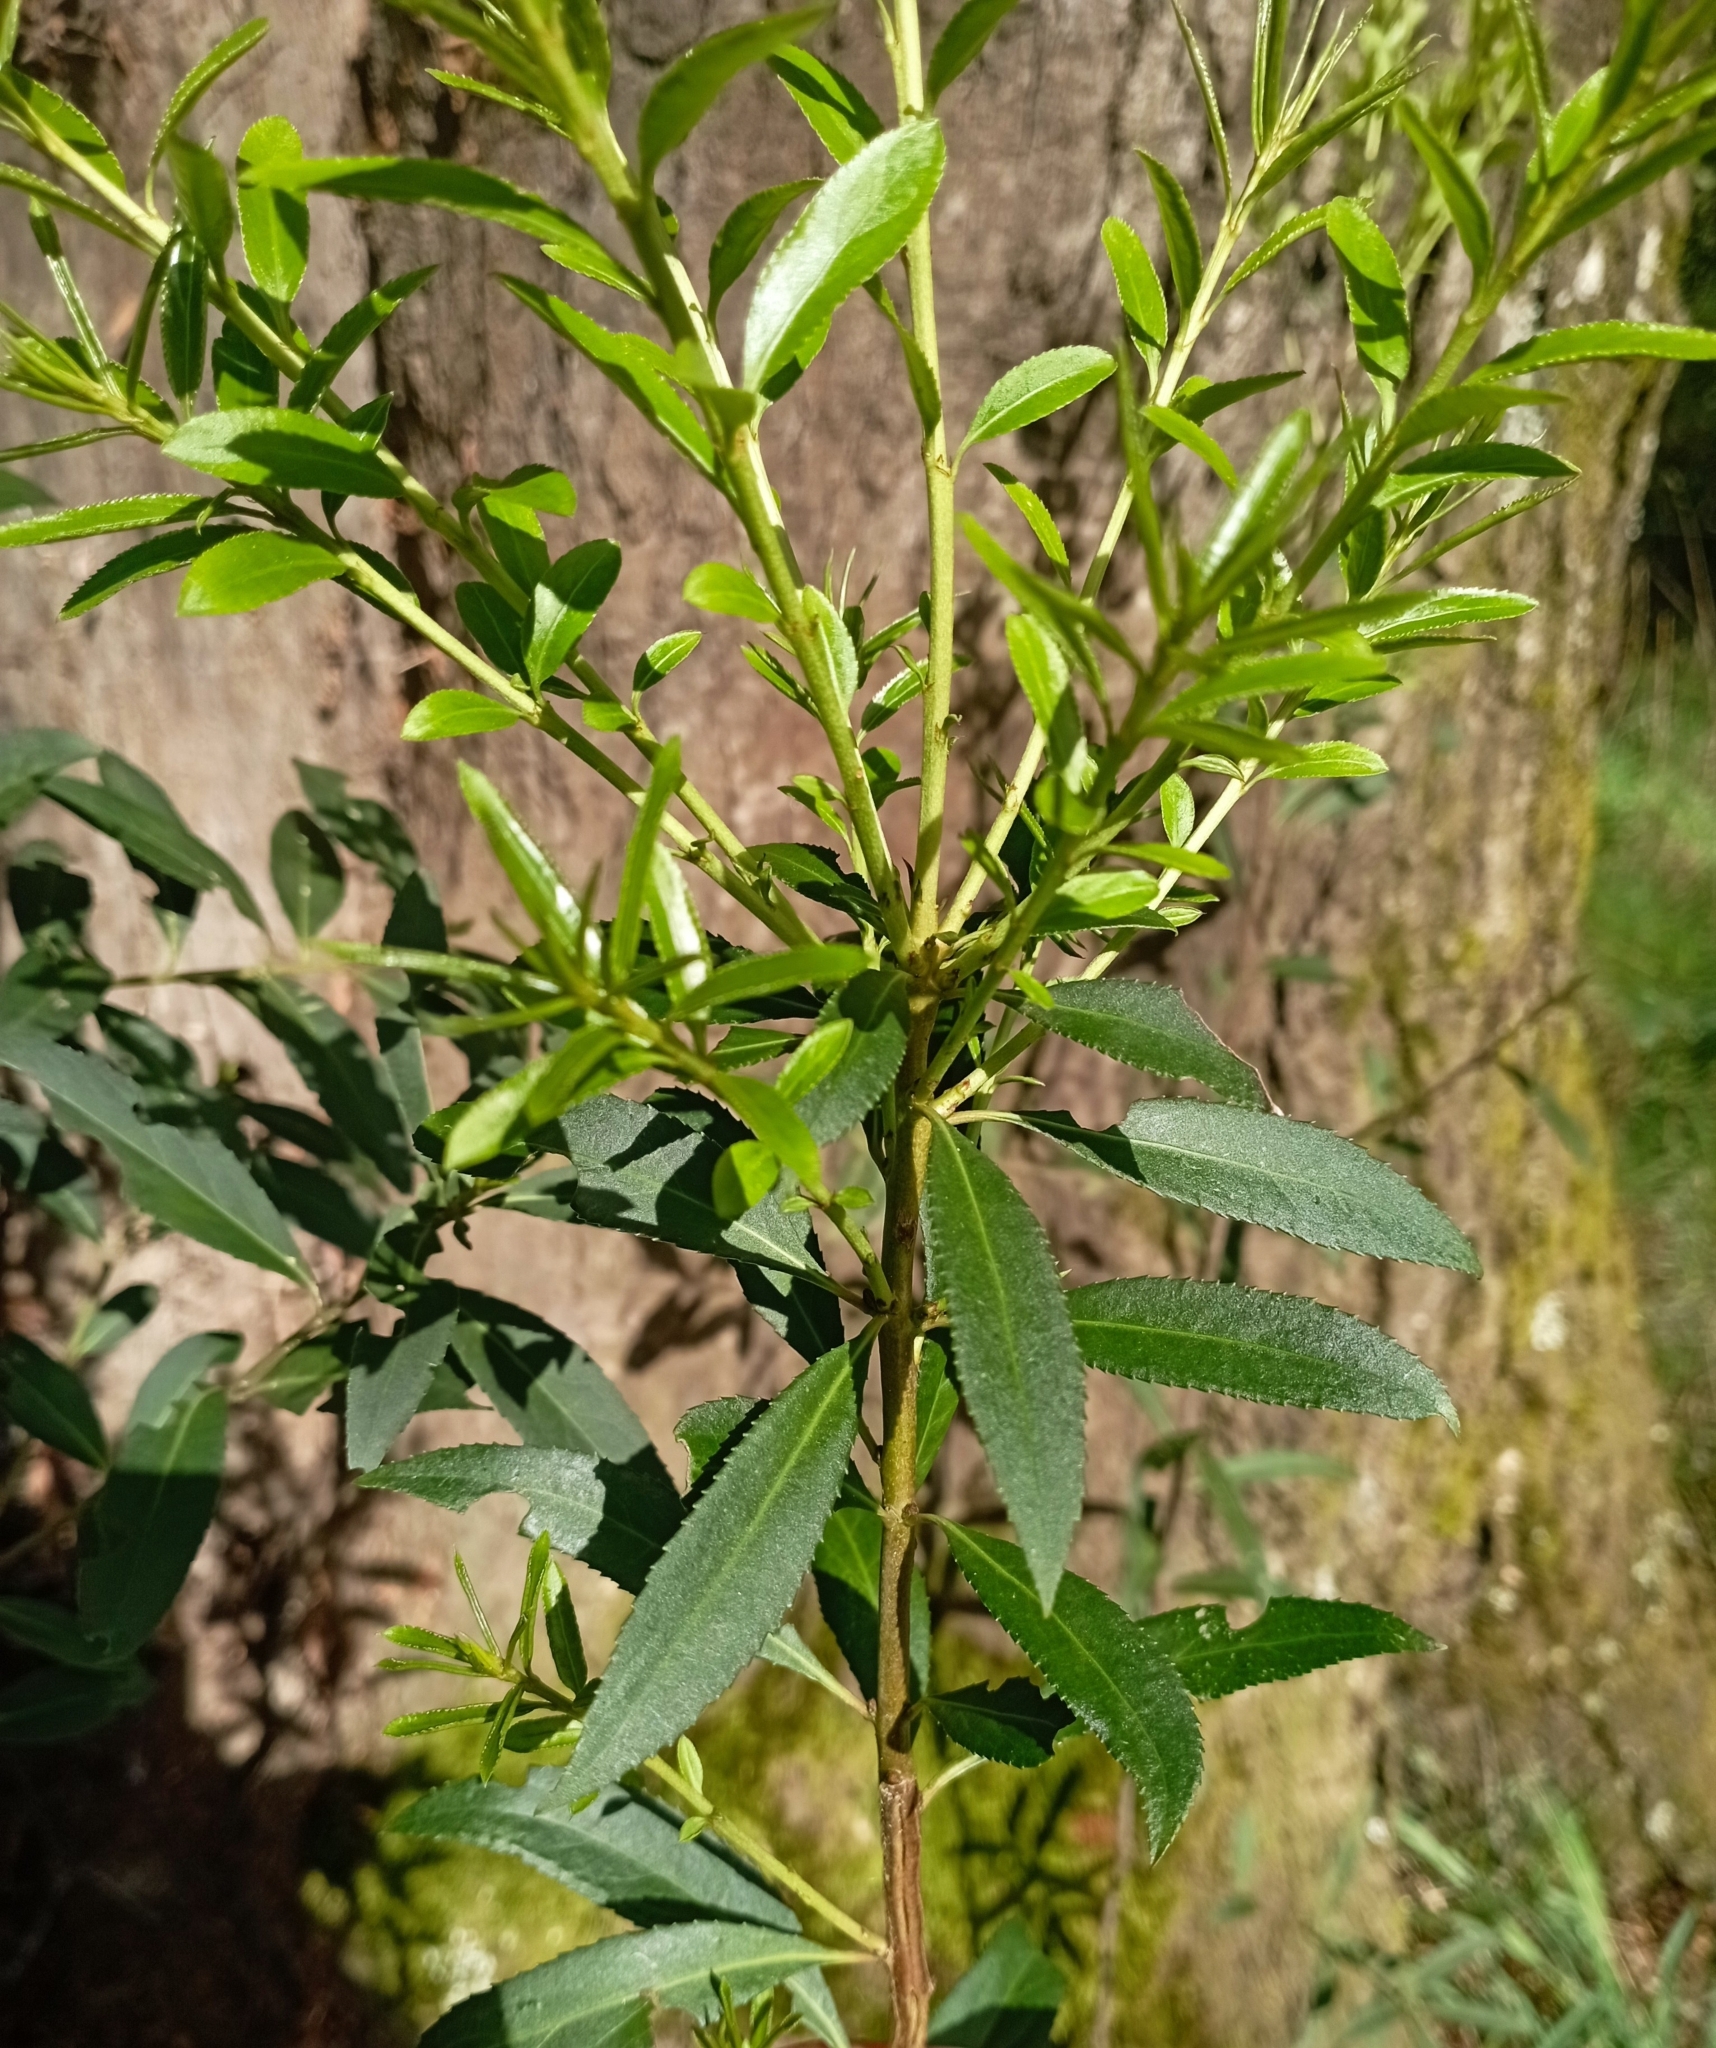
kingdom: Plantae
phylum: Tracheophyta
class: Magnoliopsida
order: Celastrales
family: Celastraceae
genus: Maytenus
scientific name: Maytenus boaria
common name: Mayten
